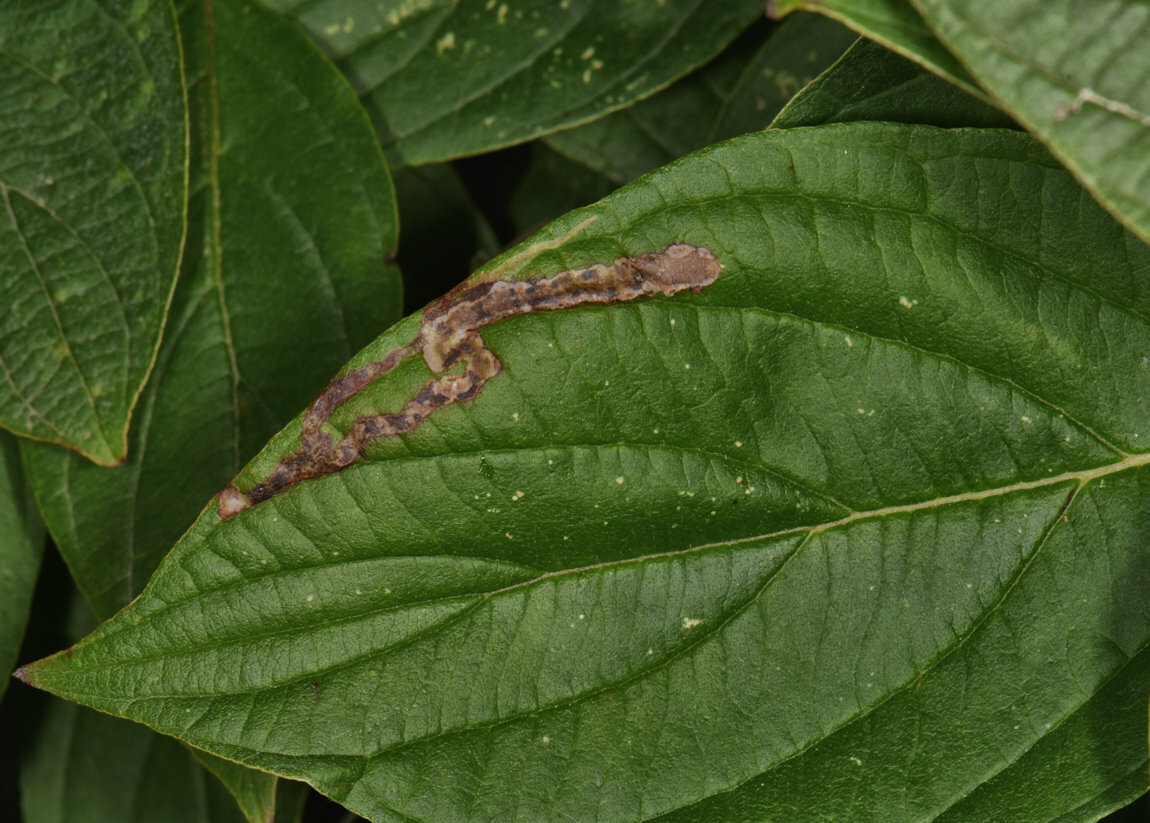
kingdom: Animalia
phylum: Arthropoda
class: Insecta
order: Diptera
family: Agromyzidae
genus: Phytomyza
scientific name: Phytomyza agromyzina
